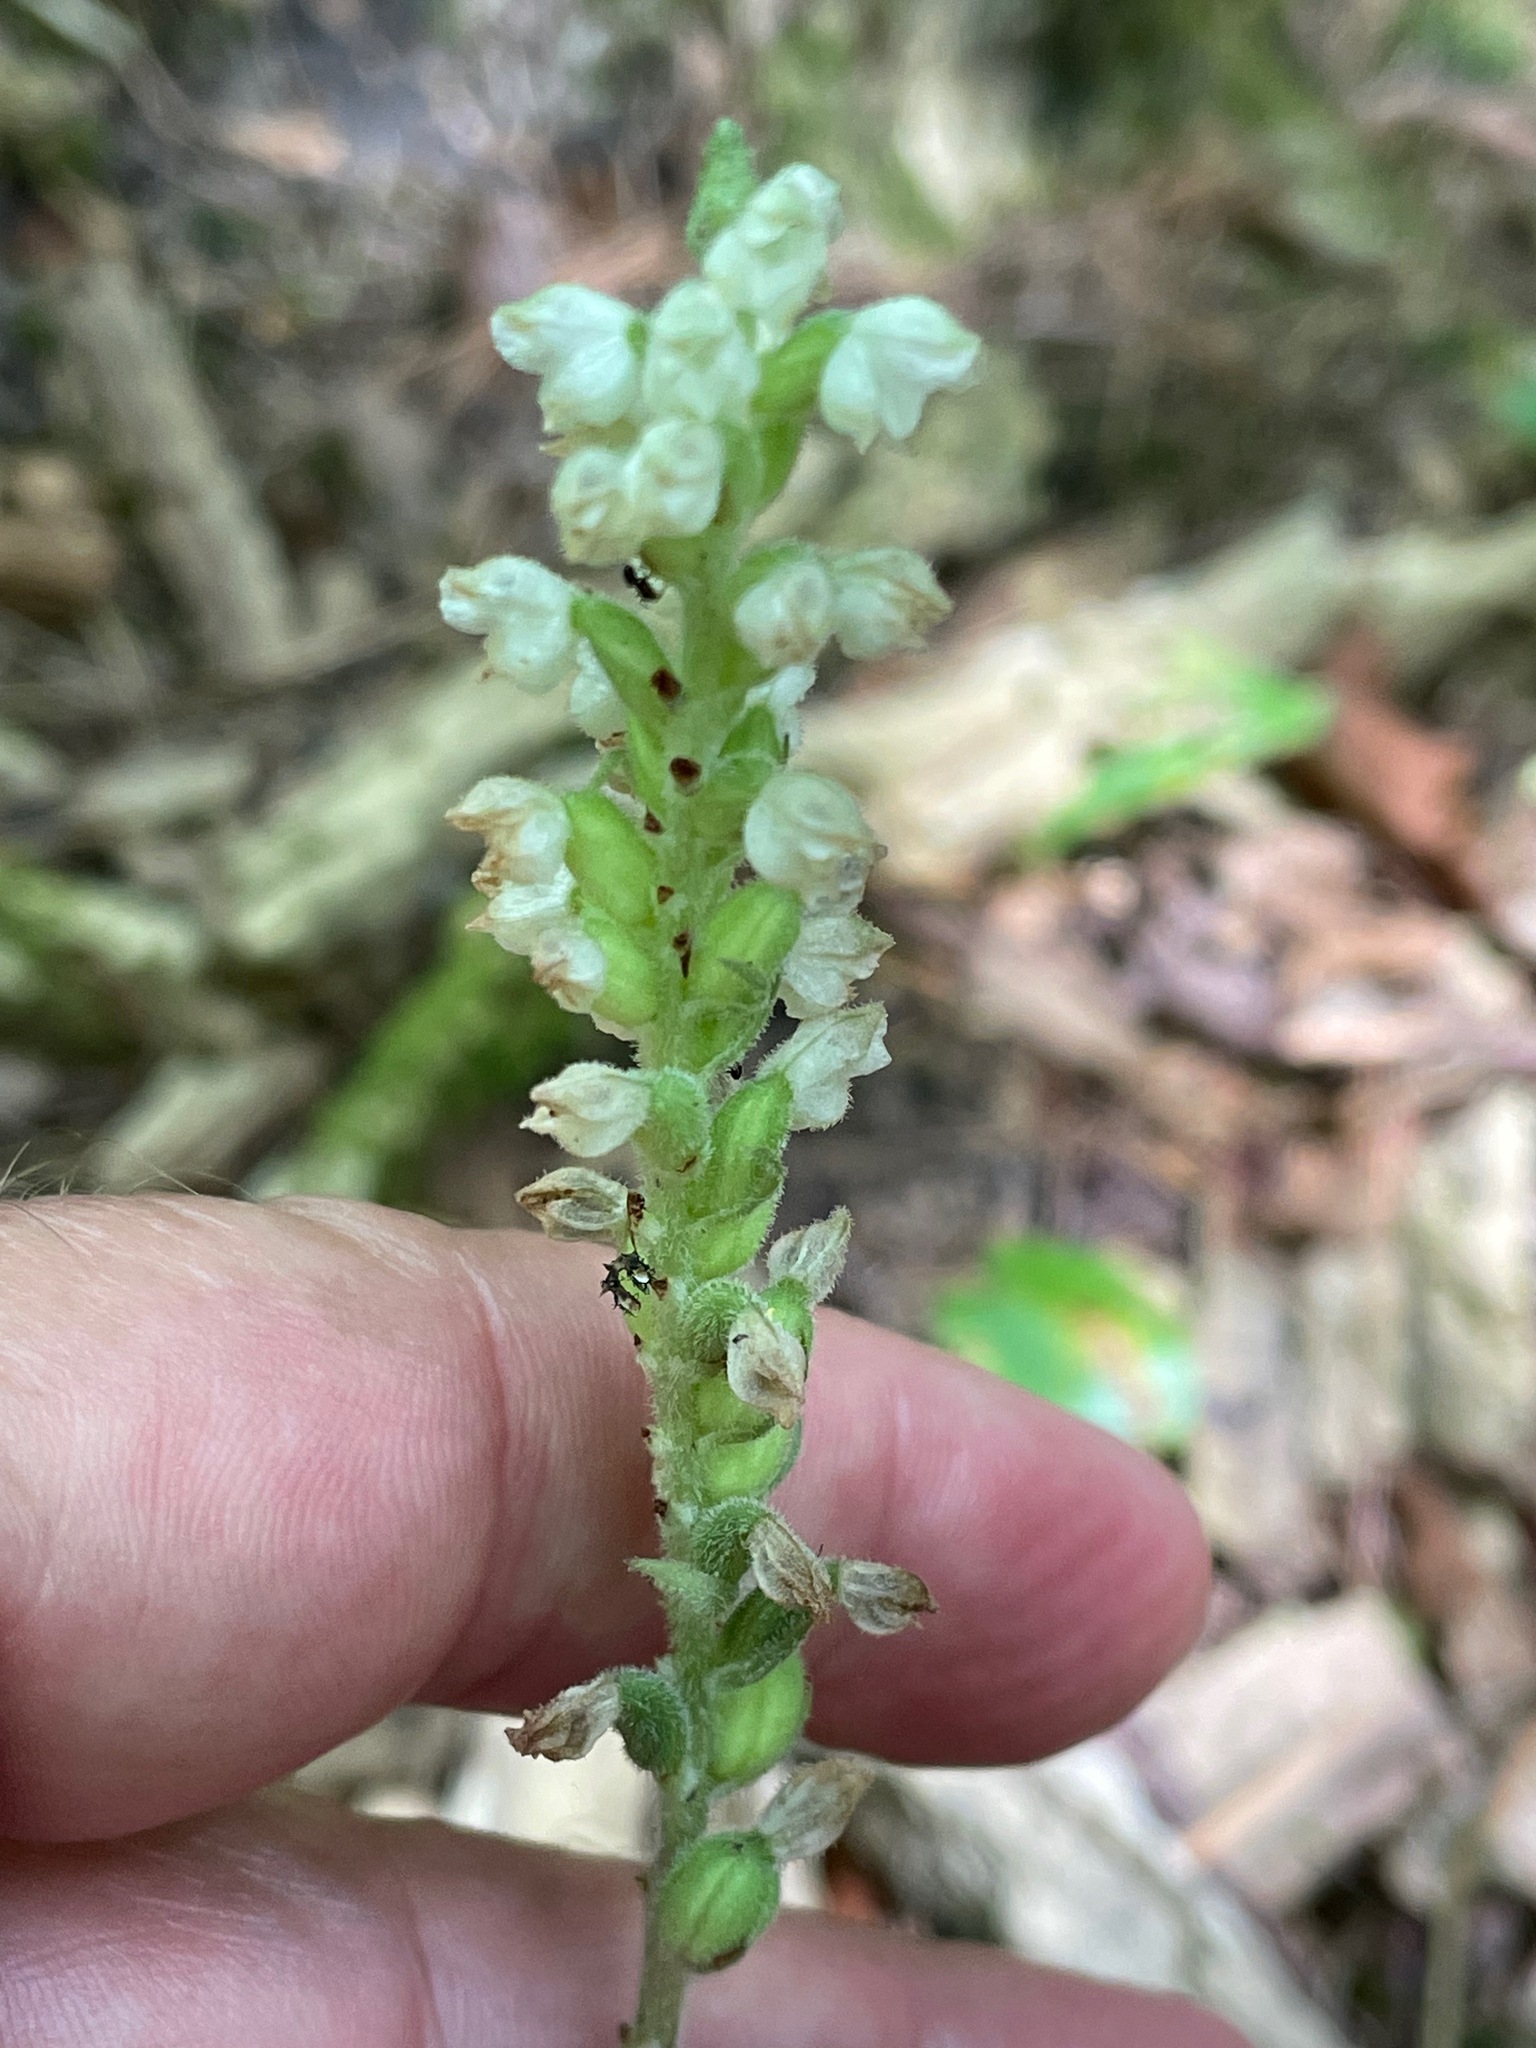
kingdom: Plantae
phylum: Tracheophyta
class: Liliopsida
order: Asparagales
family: Orchidaceae
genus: Goodyera
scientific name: Goodyera pubescens
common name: Downy rattlesnake-plantain
